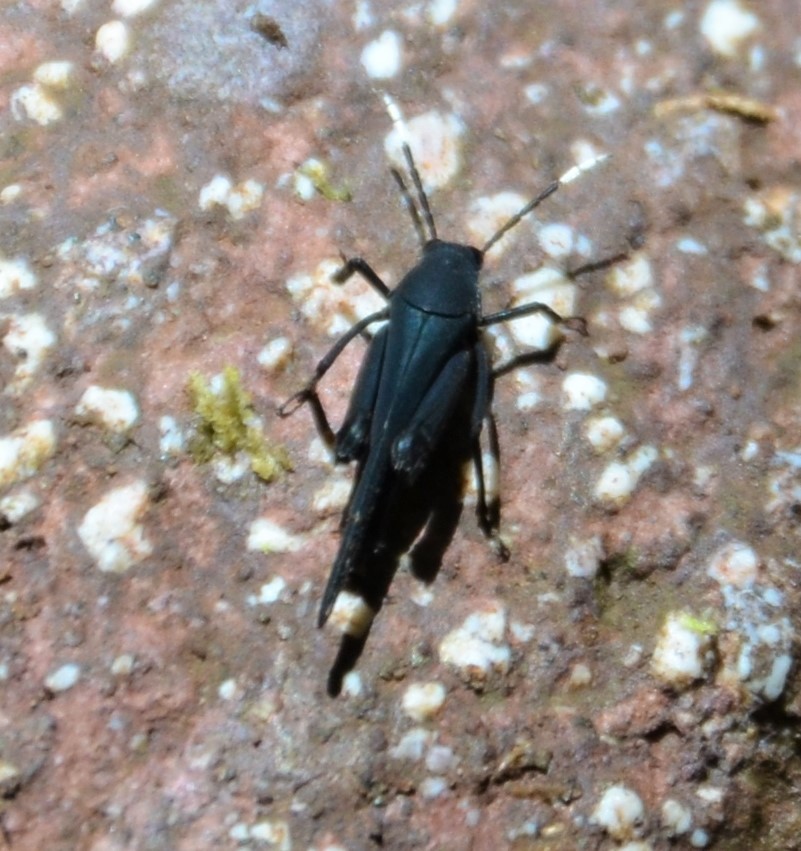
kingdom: Animalia
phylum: Arthropoda
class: Insecta
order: Orthoptera
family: Ripipterygidae
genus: Ripipteryx
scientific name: Ripipteryx forceps
